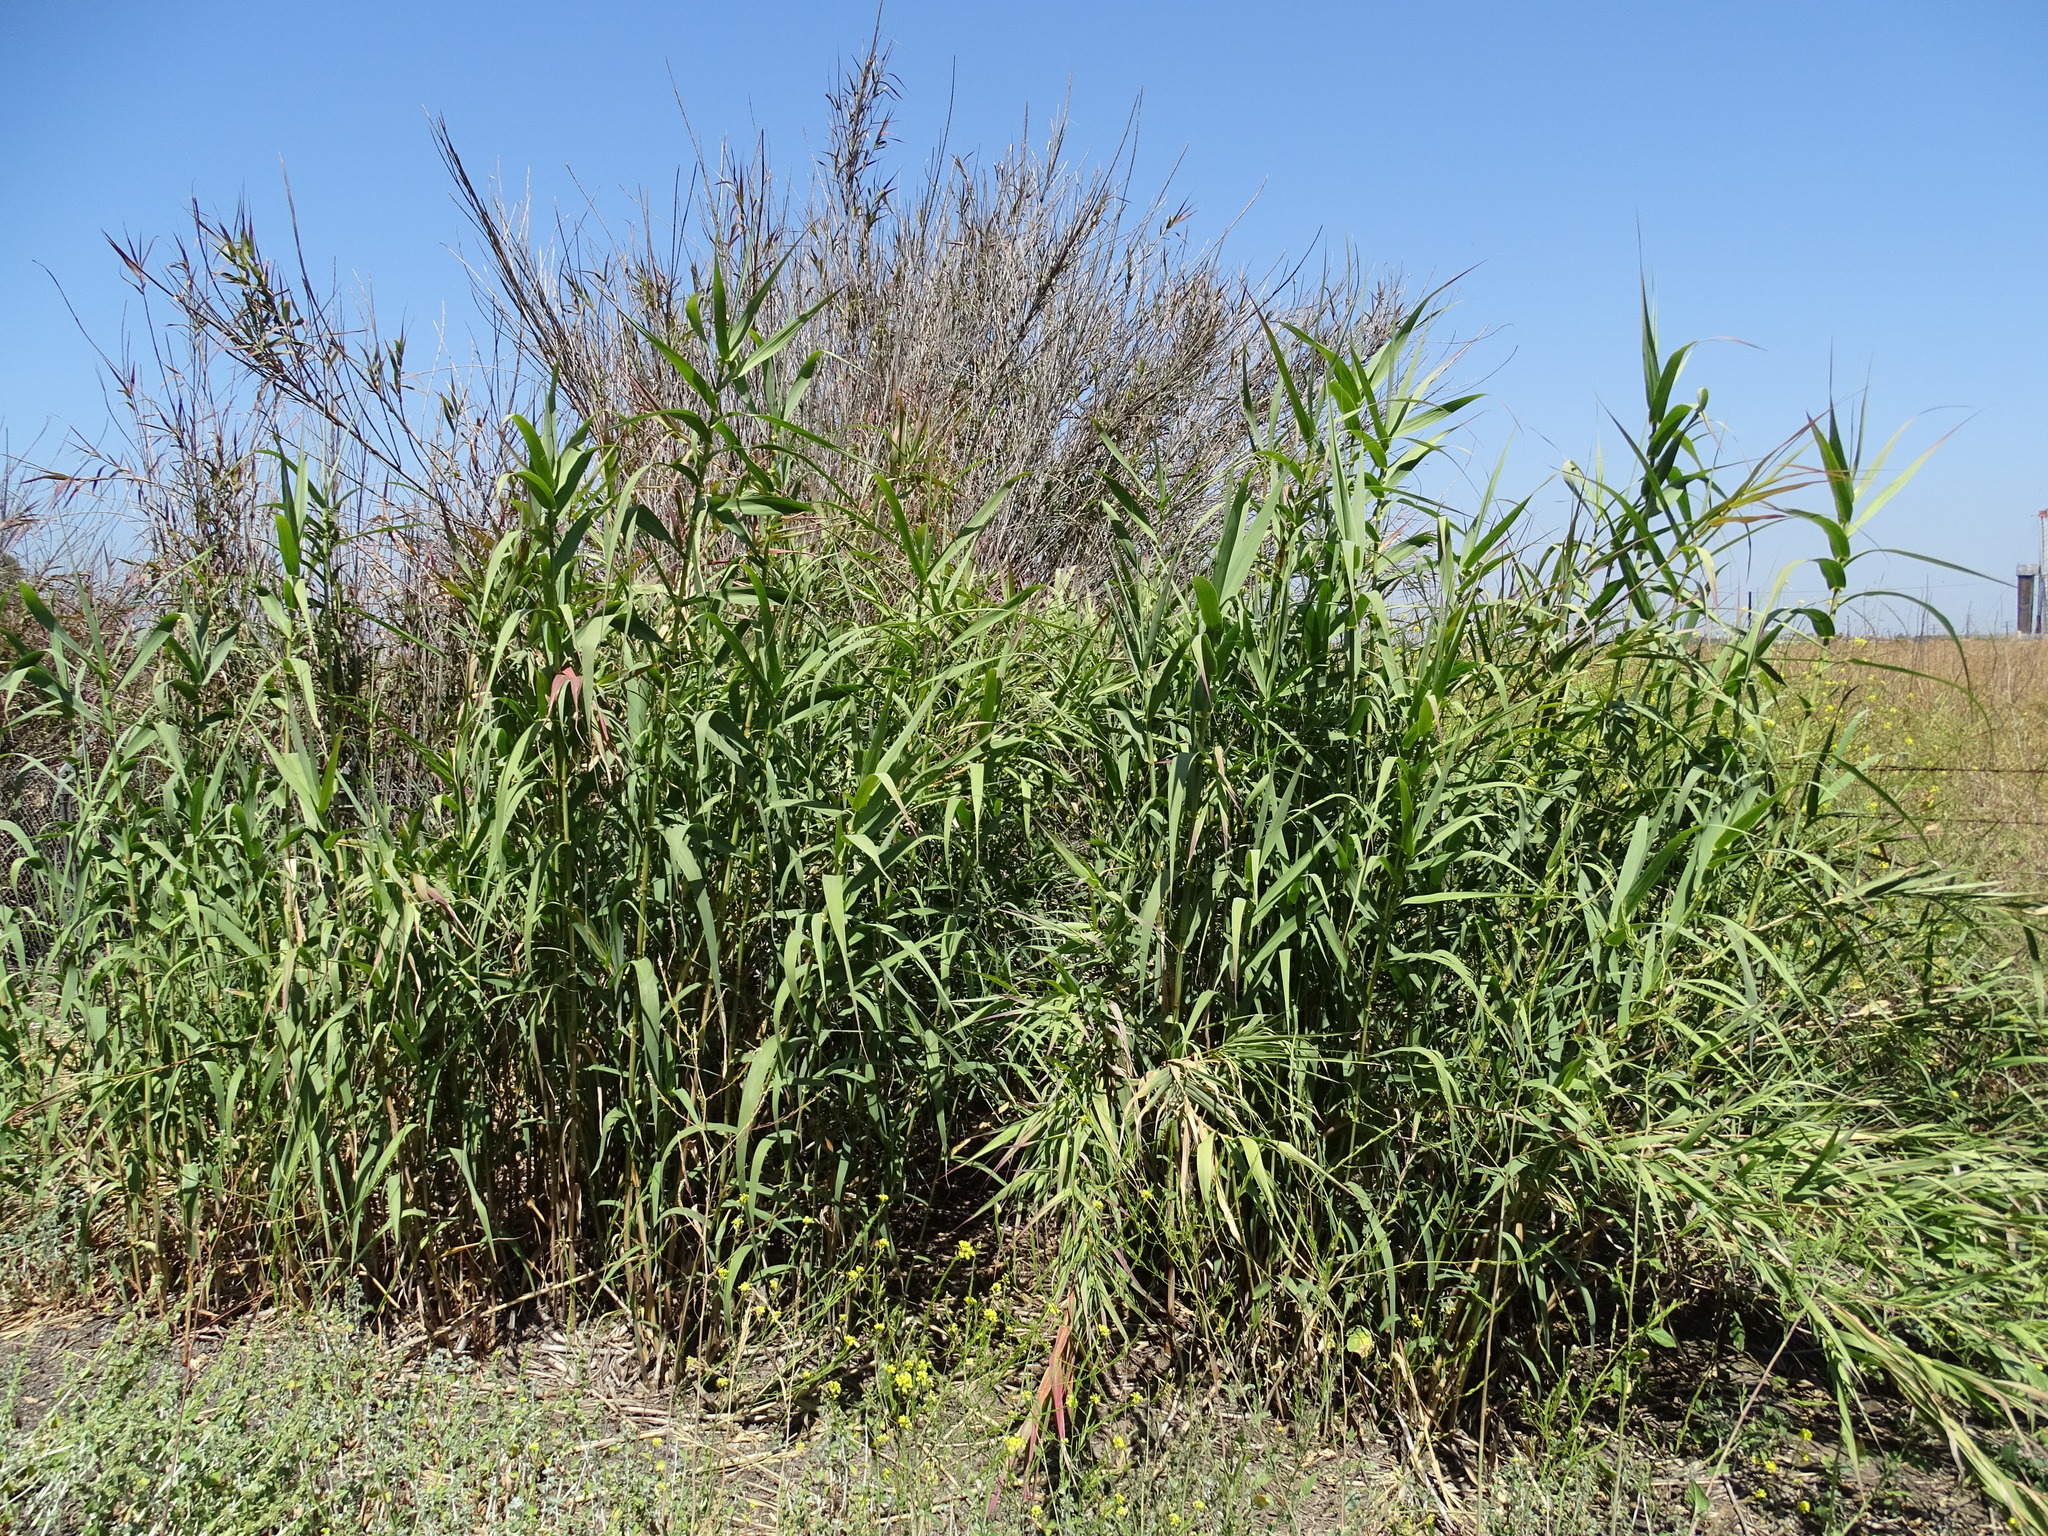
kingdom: Plantae
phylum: Tracheophyta
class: Liliopsida
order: Poales
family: Poaceae
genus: Arundo
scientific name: Arundo donax
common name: Giant reed
